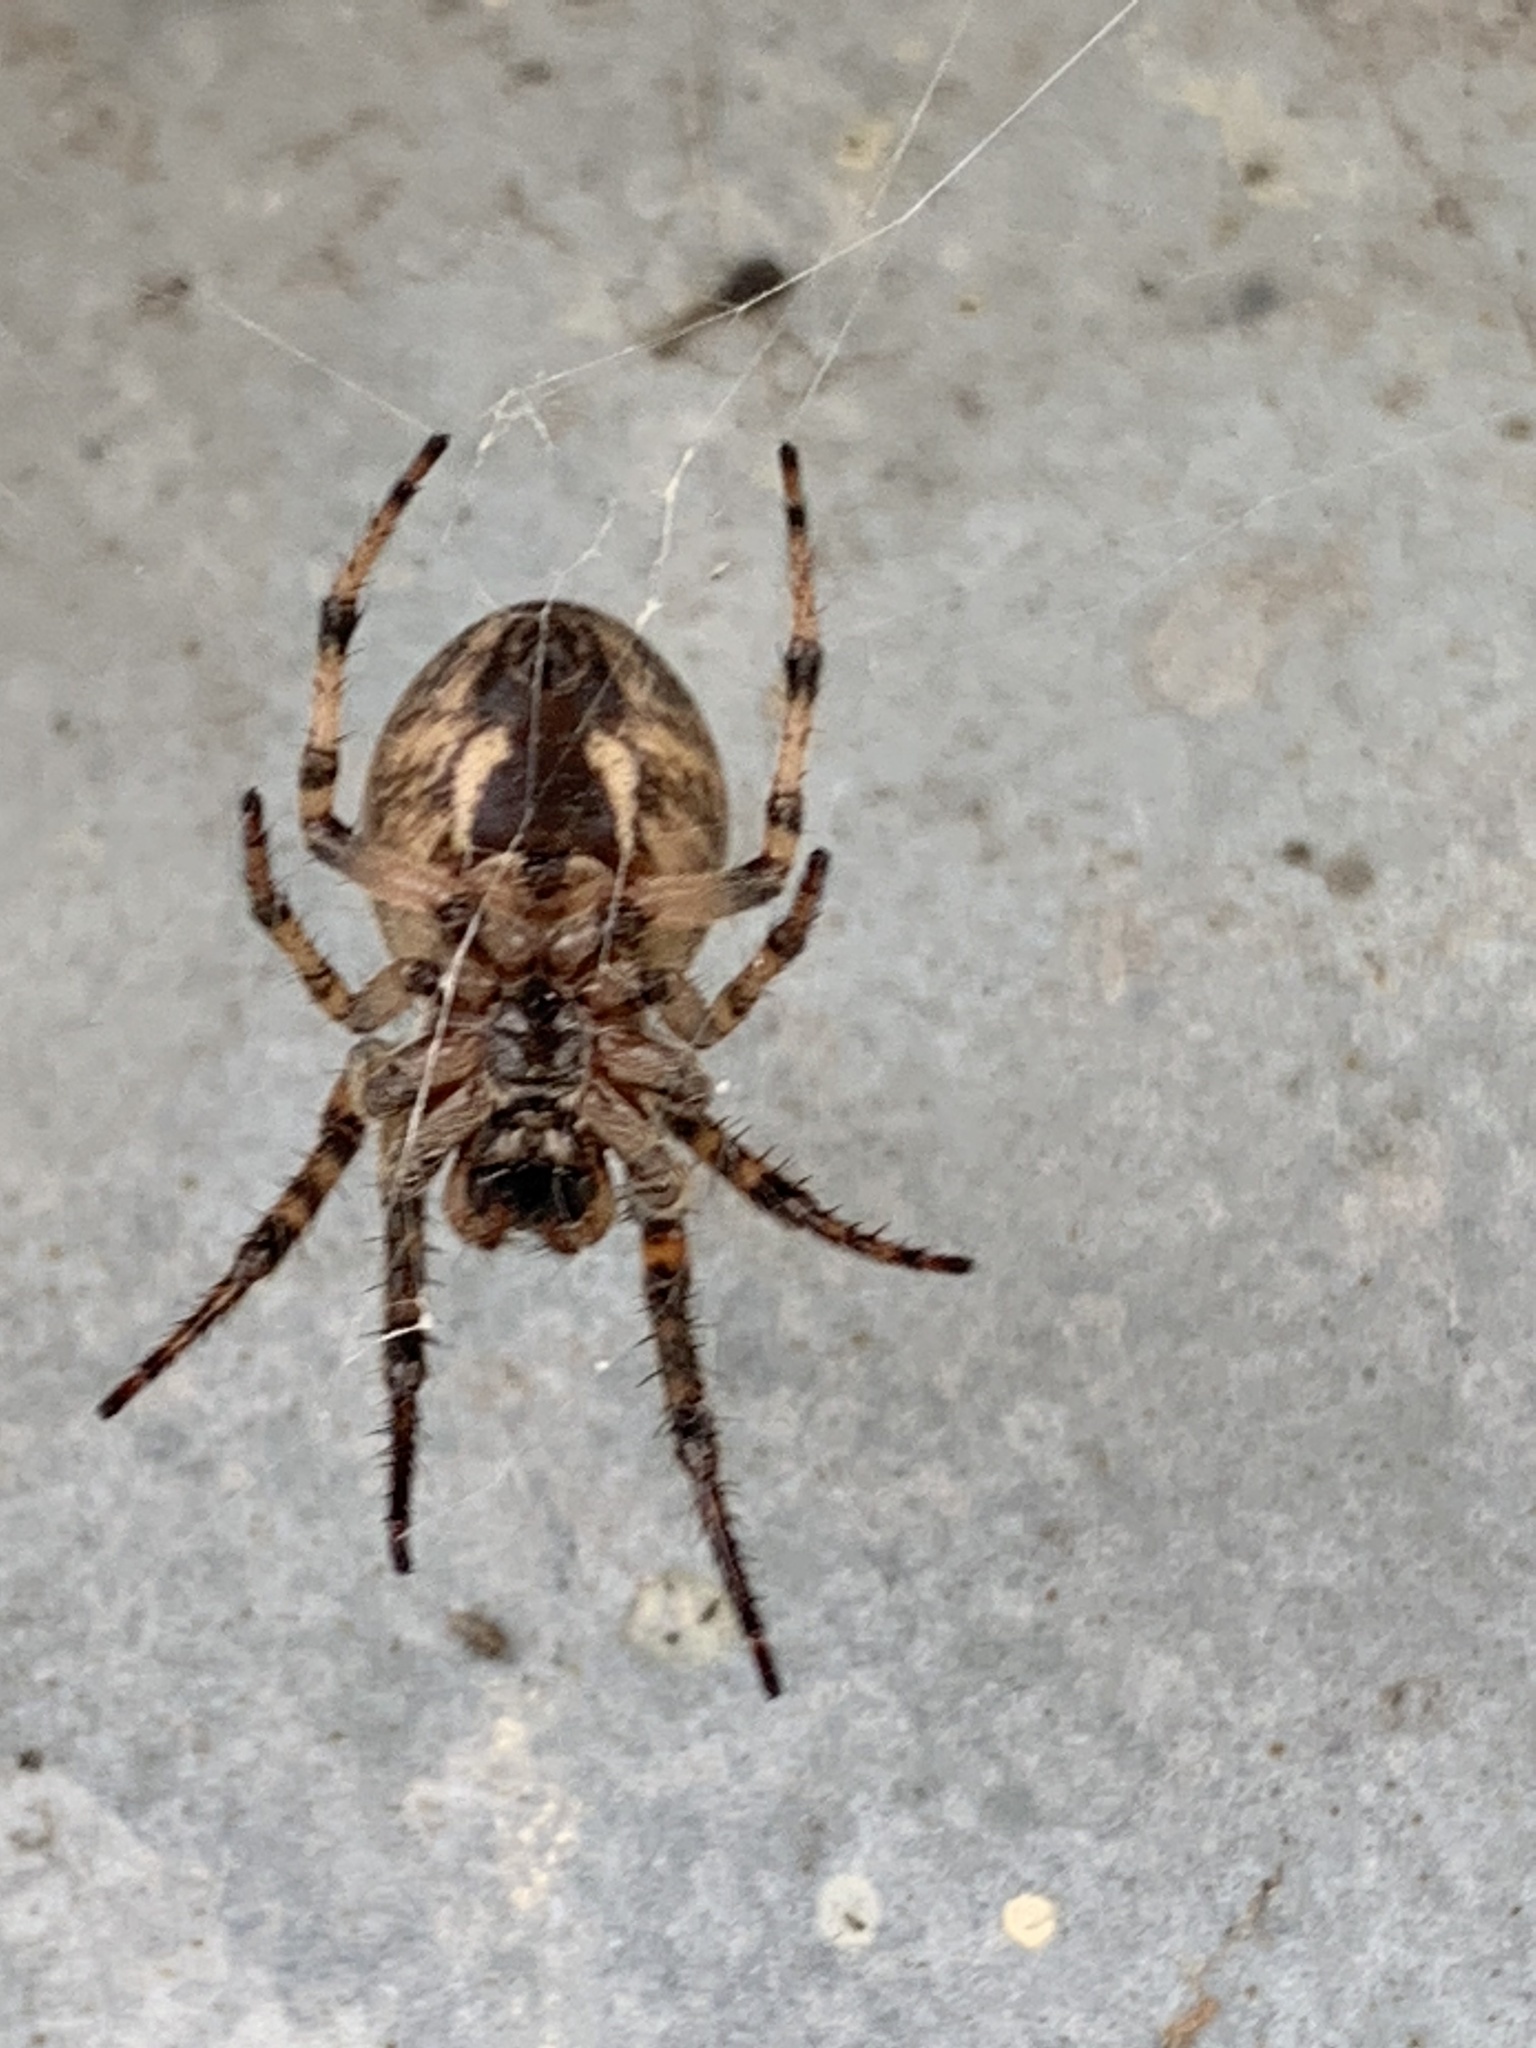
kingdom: Animalia
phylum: Arthropoda
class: Arachnida
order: Araneae
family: Araneidae
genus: Larinioides
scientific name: Larinioides cornutus
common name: Furrow orbweaver
